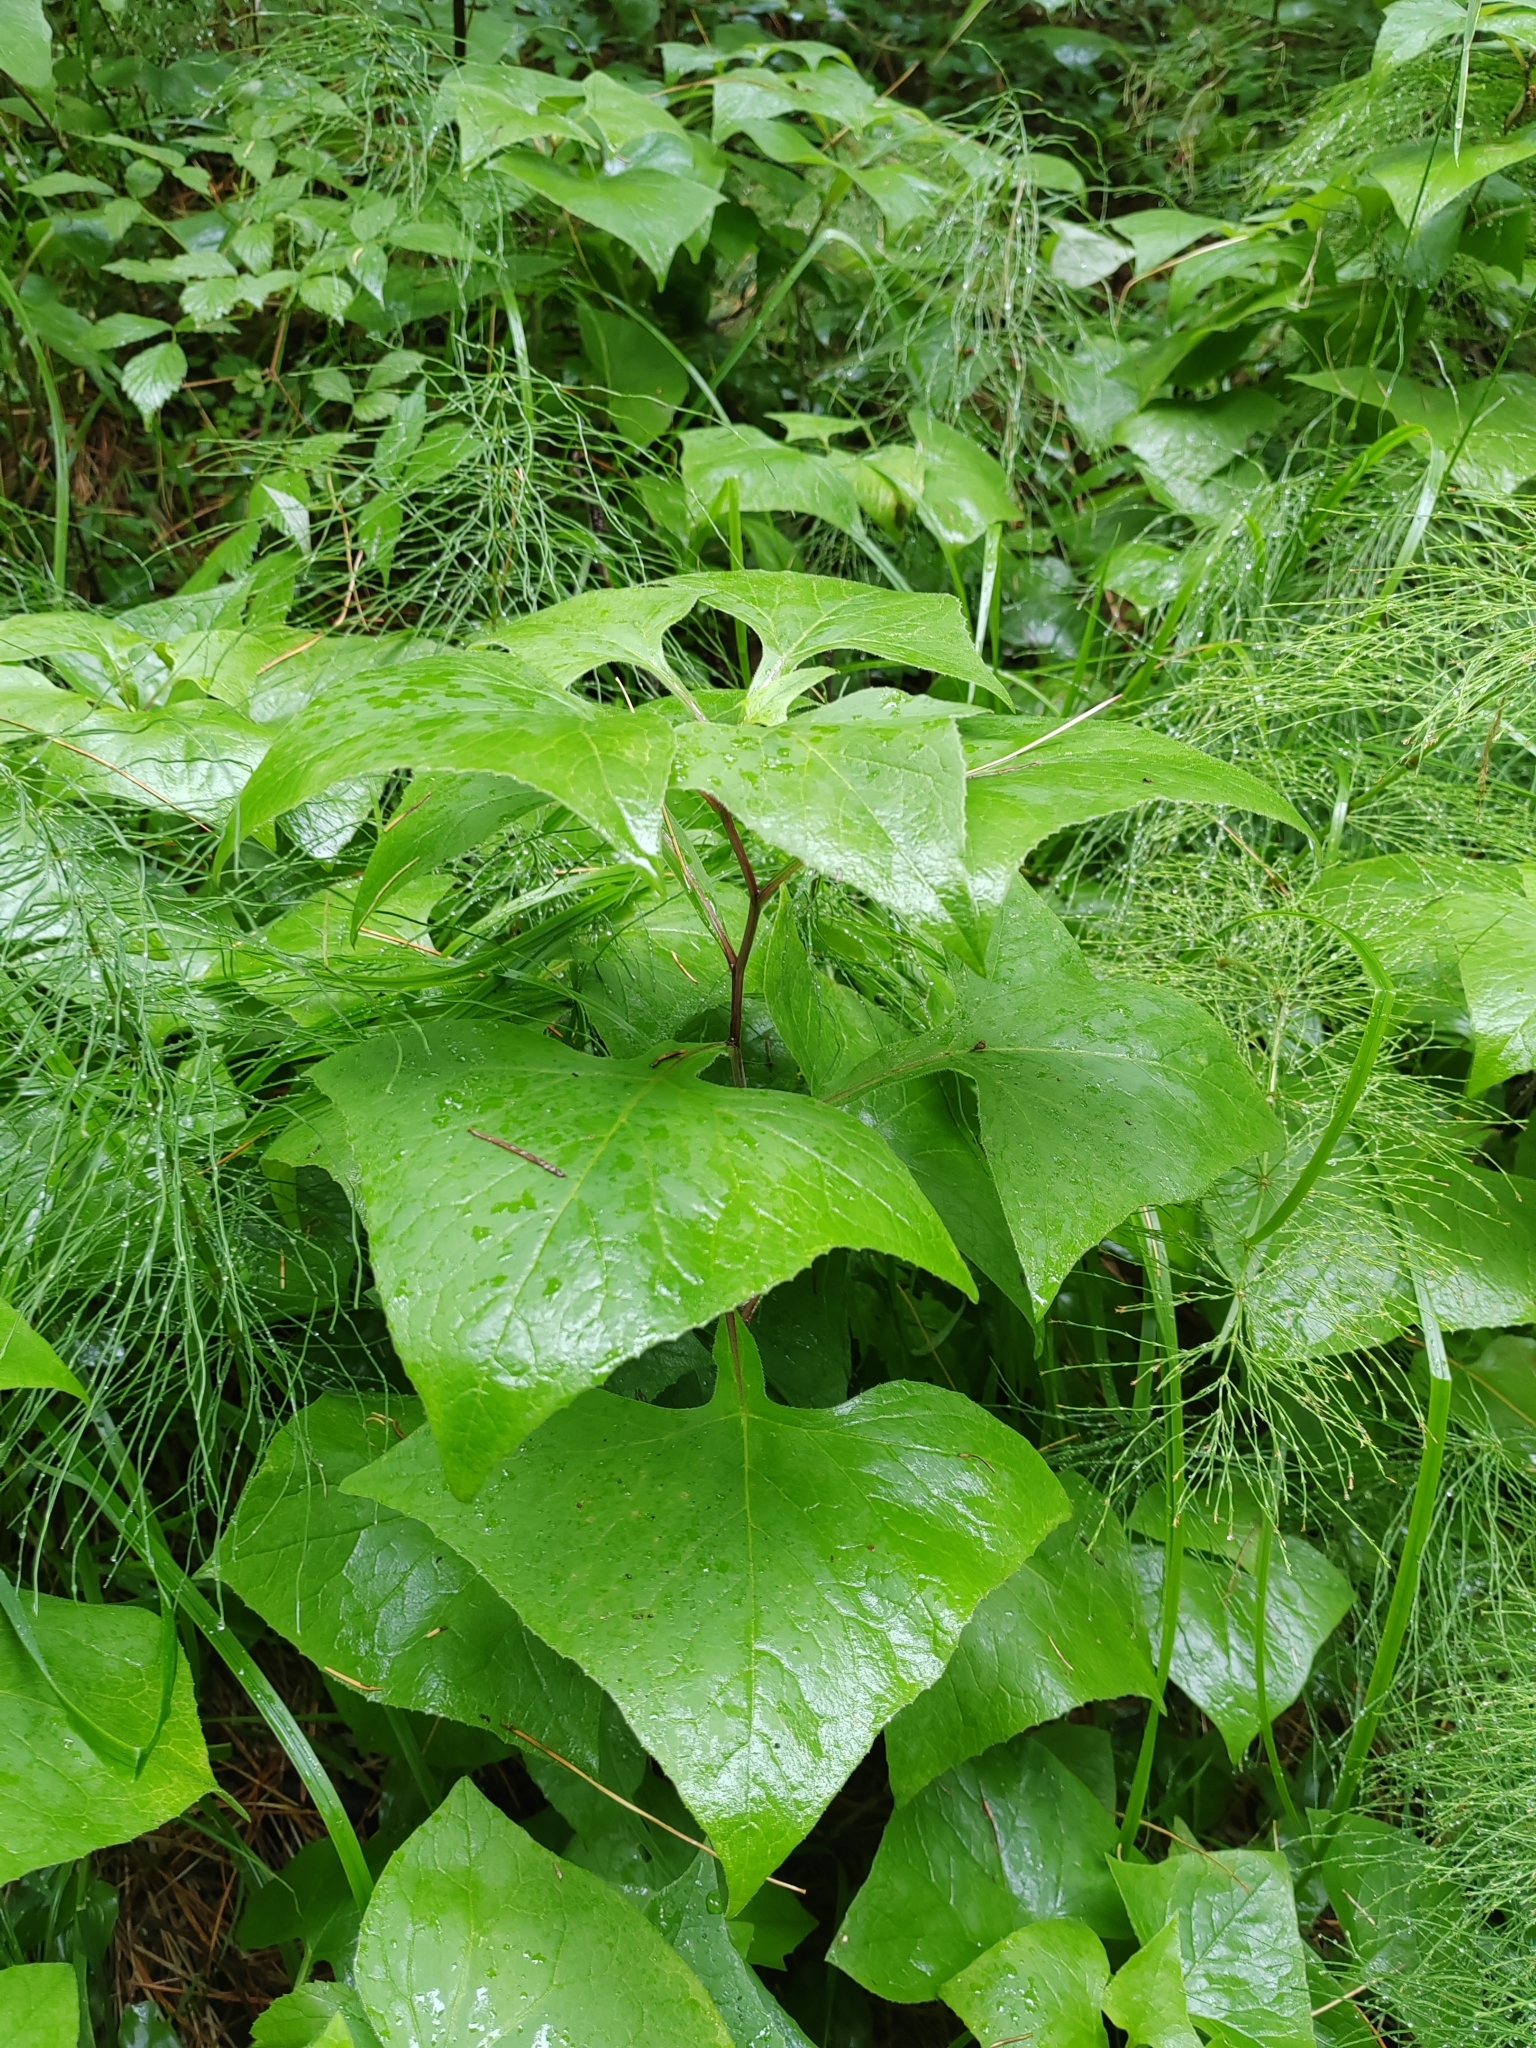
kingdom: Plantae
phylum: Tracheophyta
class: Magnoliopsida
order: Asterales
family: Asteraceae
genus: Parasenecio
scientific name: Parasenecio hastatus
